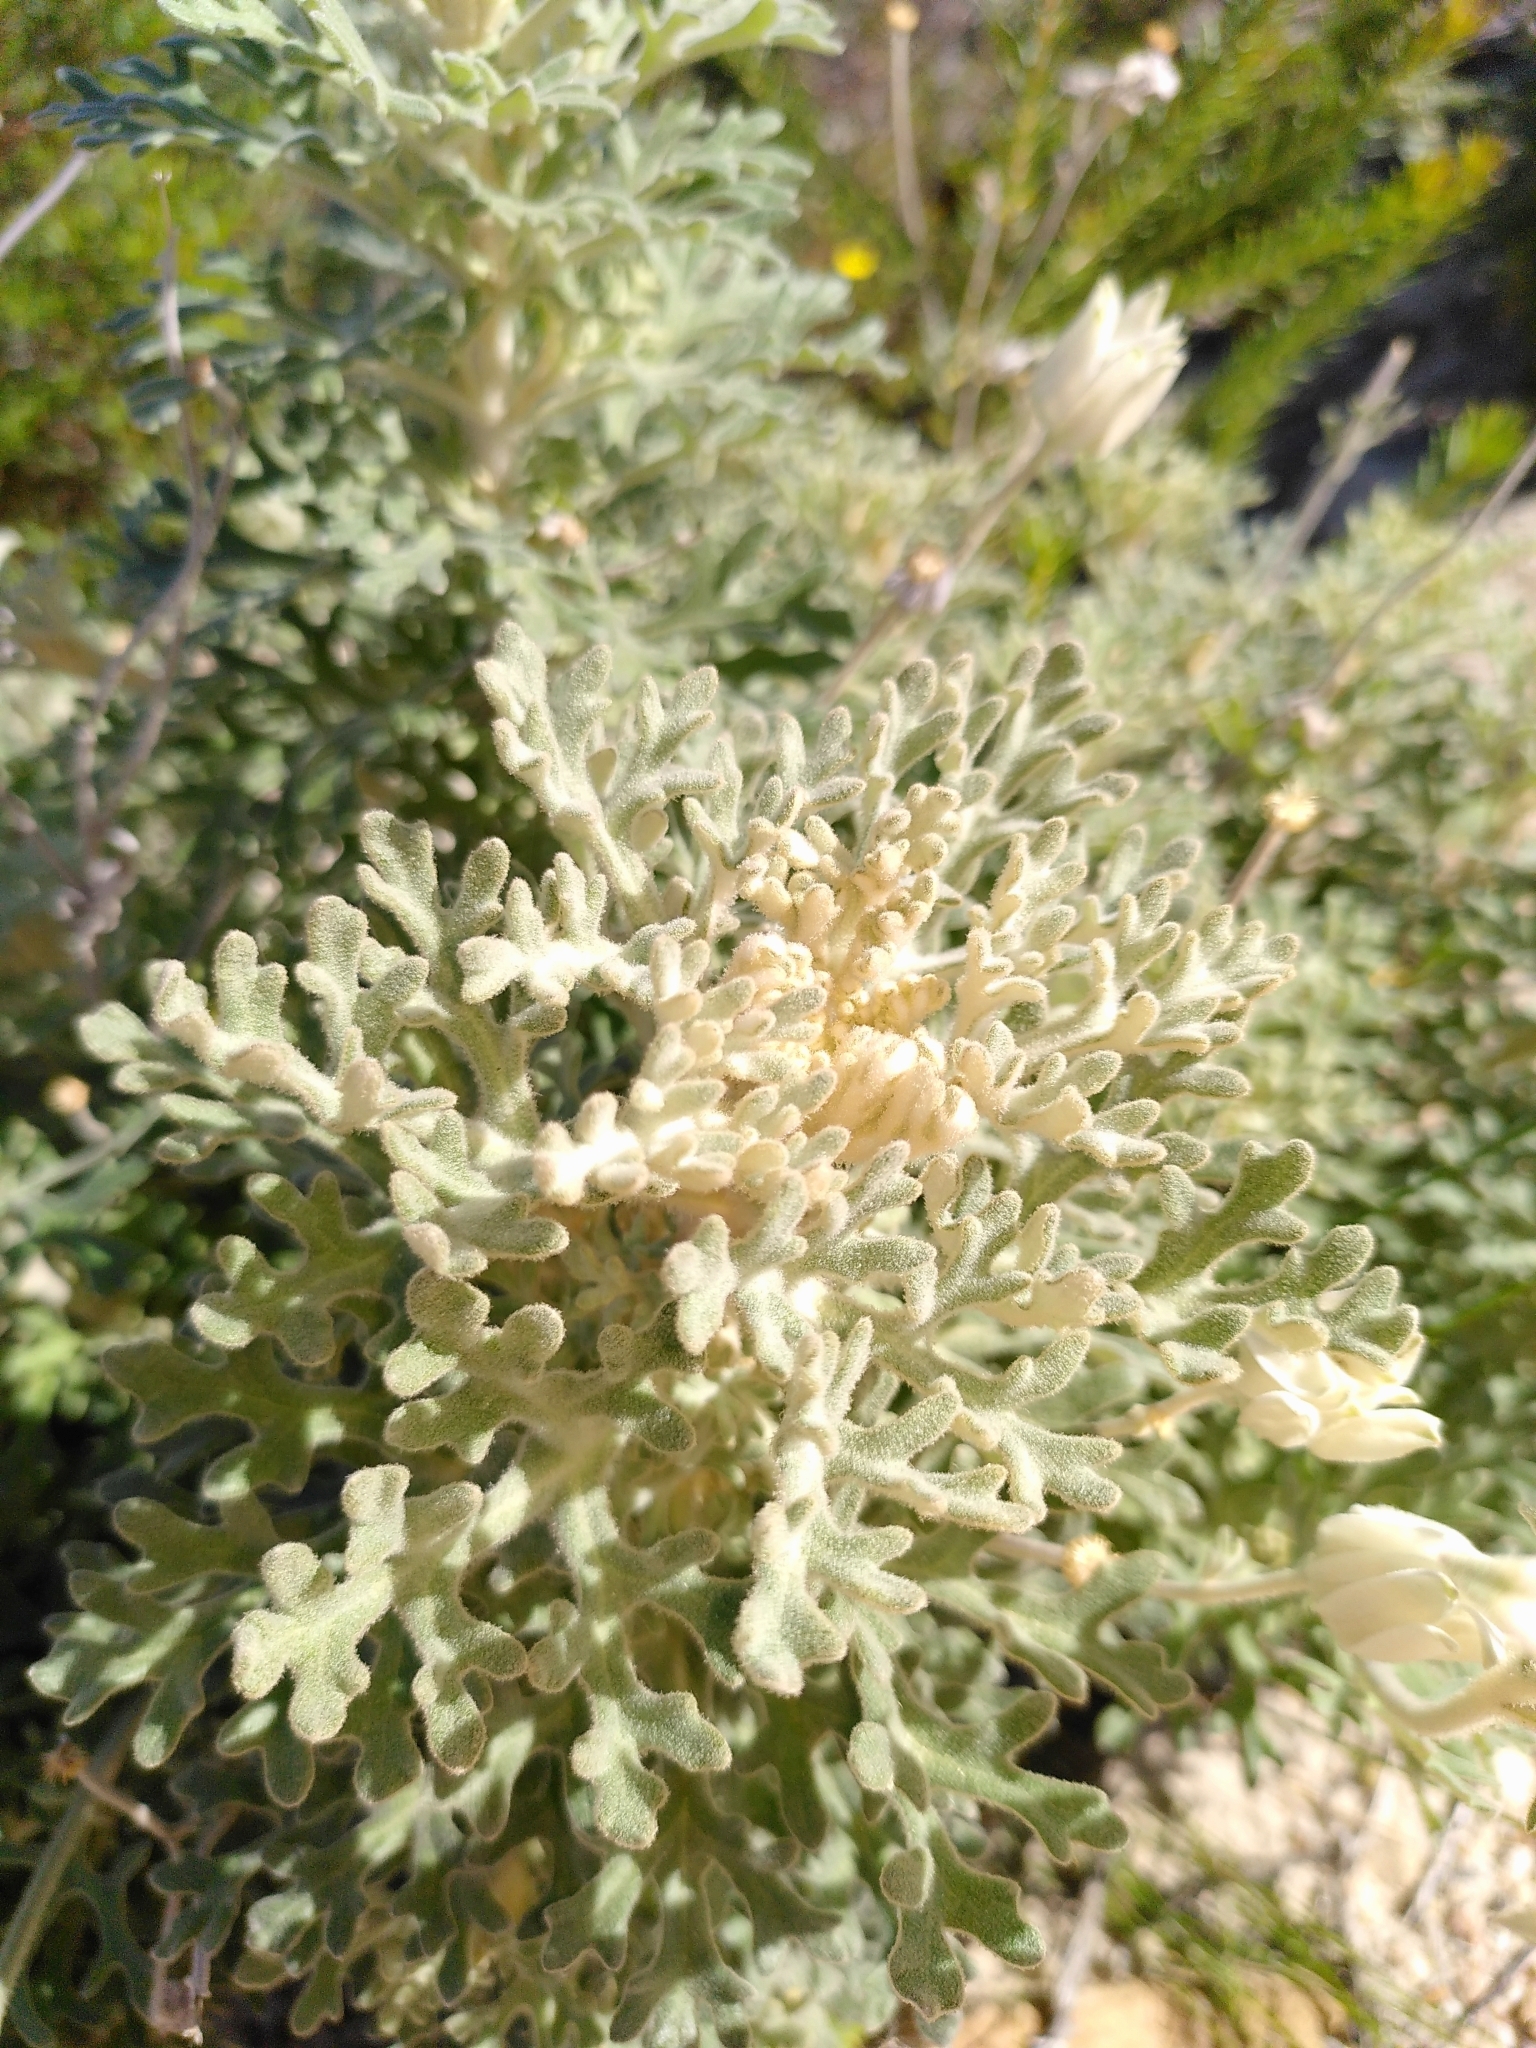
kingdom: Plantae
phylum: Tracheophyta
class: Magnoliopsida
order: Apiales
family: Apiaceae
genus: Actinotus
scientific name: Actinotus helianthi
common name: Flannel-flower
